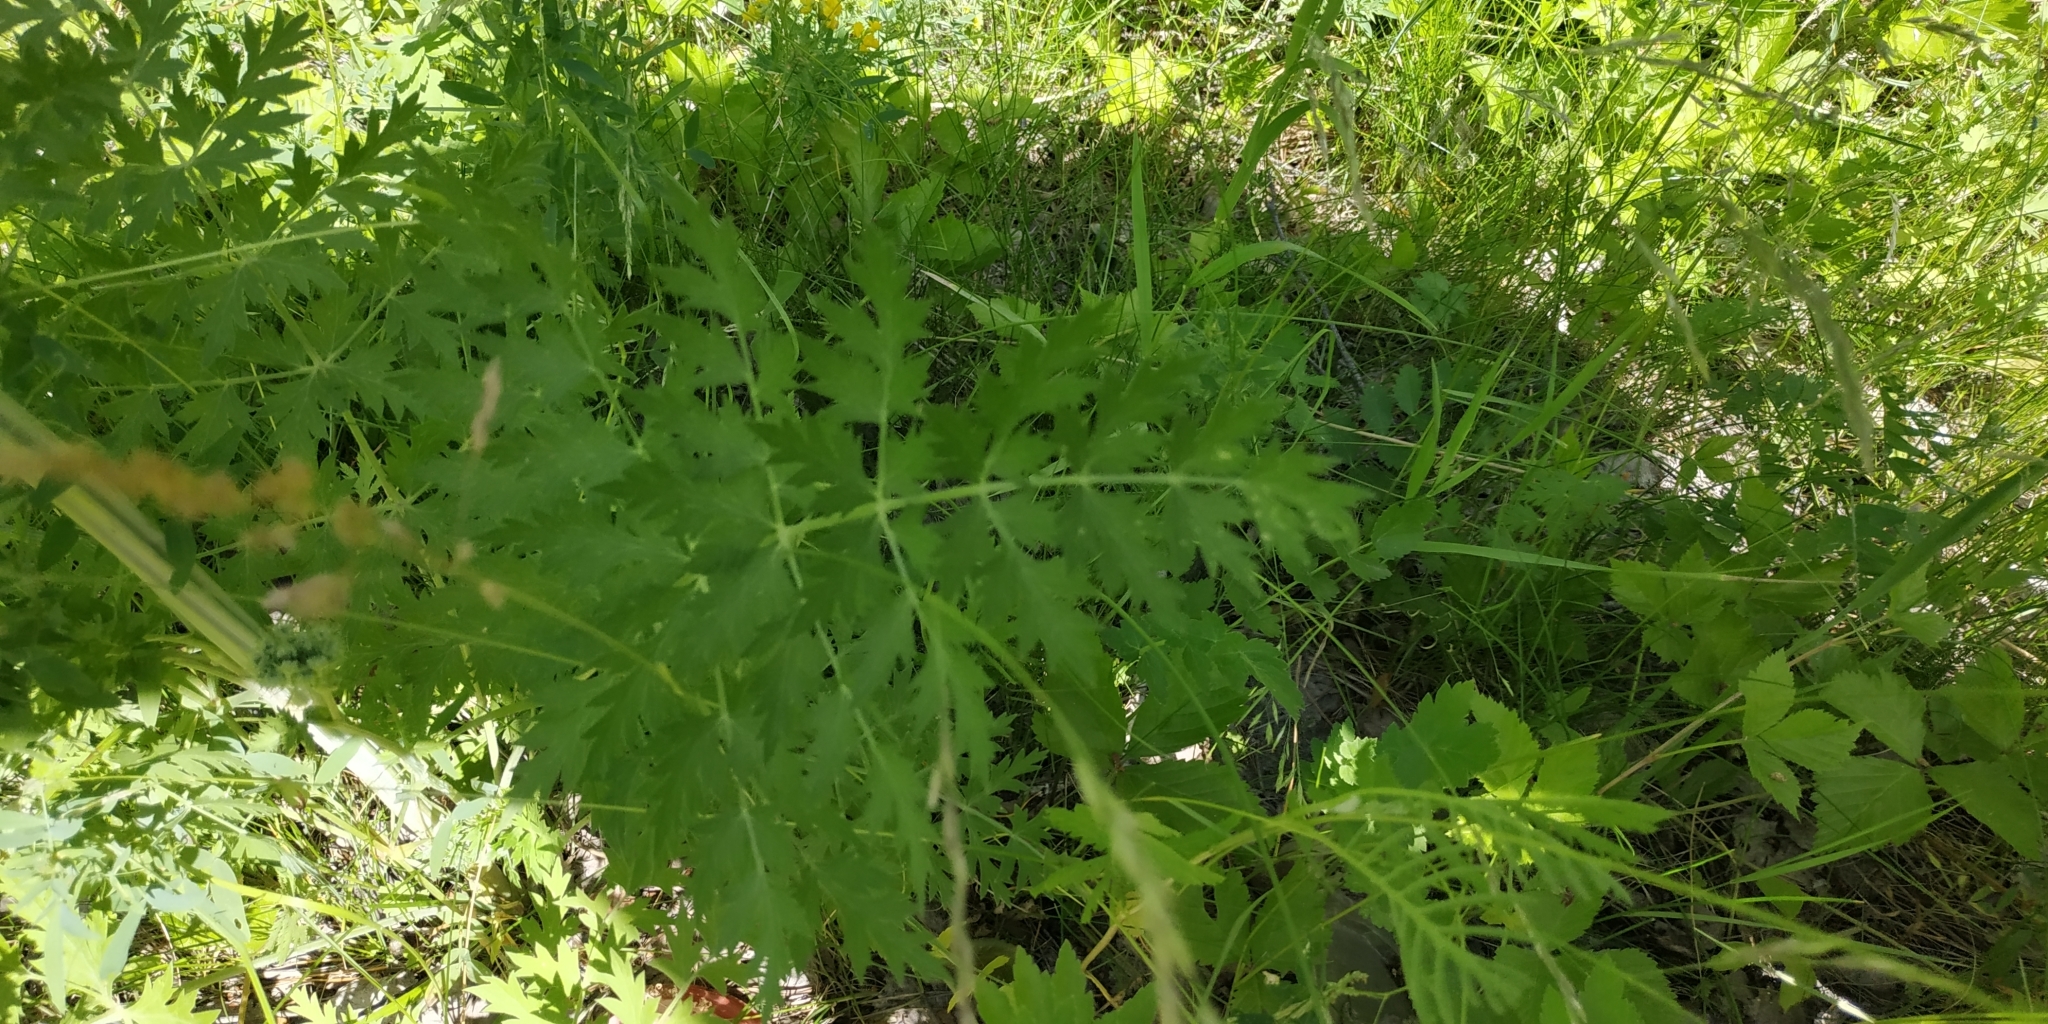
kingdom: Plantae
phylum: Tracheophyta
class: Magnoliopsida
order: Apiales
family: Apiaceae
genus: Seseli
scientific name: Seseli libanotis
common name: Mooncarrot
